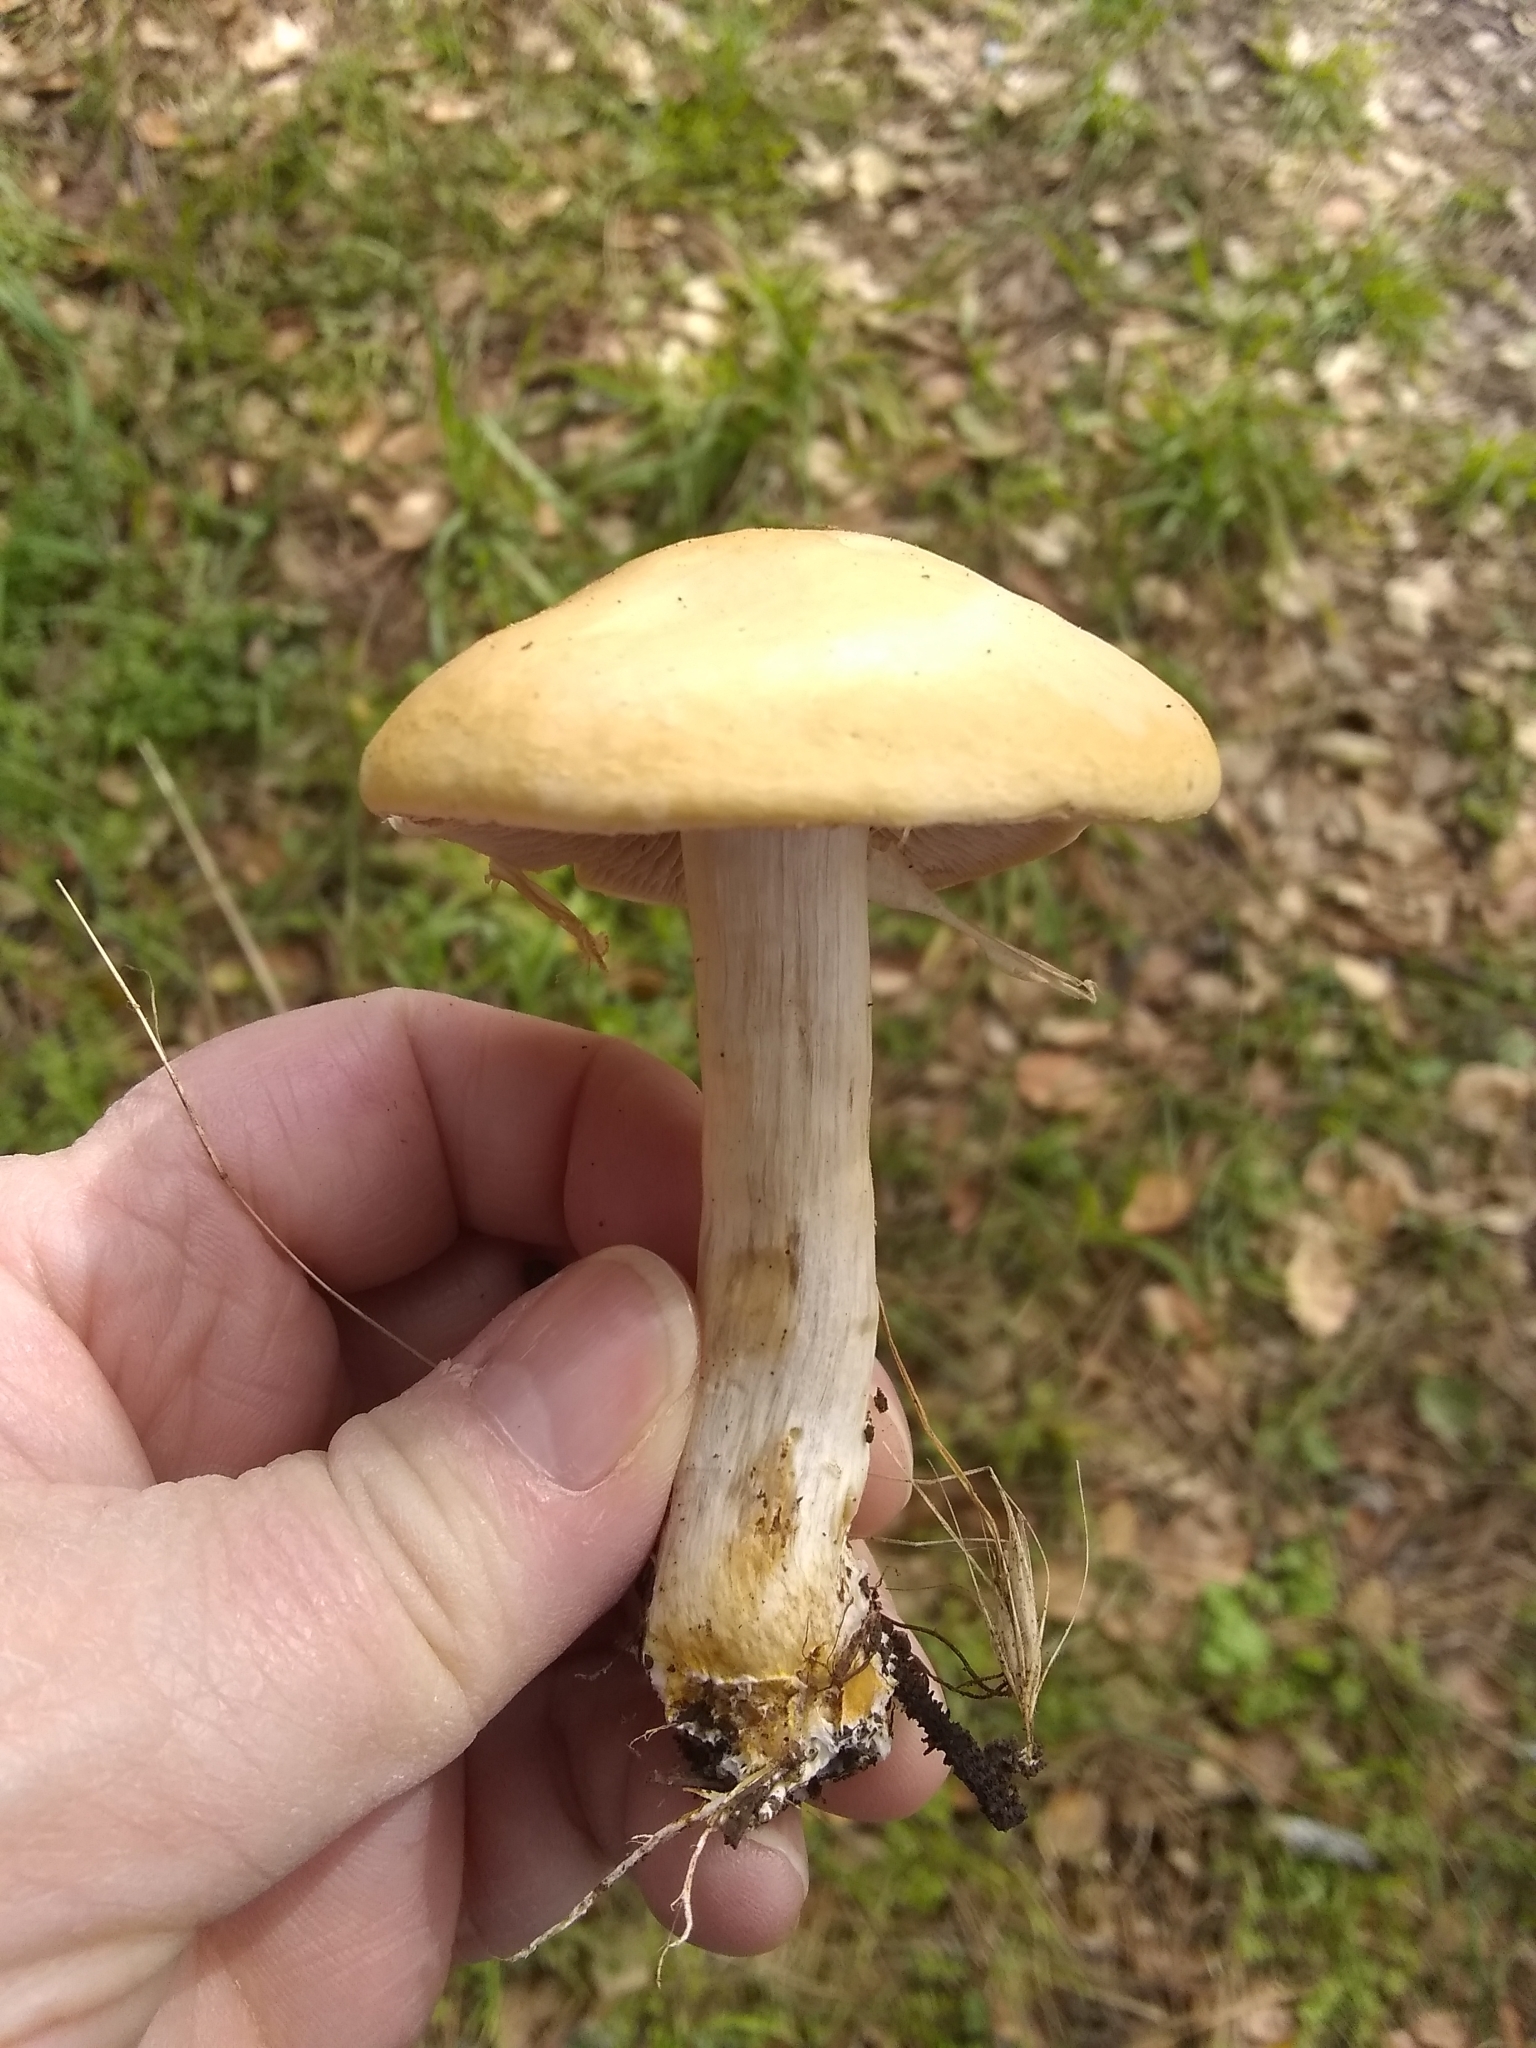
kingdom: Fungi
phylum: Basidiomycota
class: Agaricomycetes
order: Agaricales
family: Strophariaceae
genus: Agrocybe
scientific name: Agrocybe praecox
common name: Spring fieldcap
